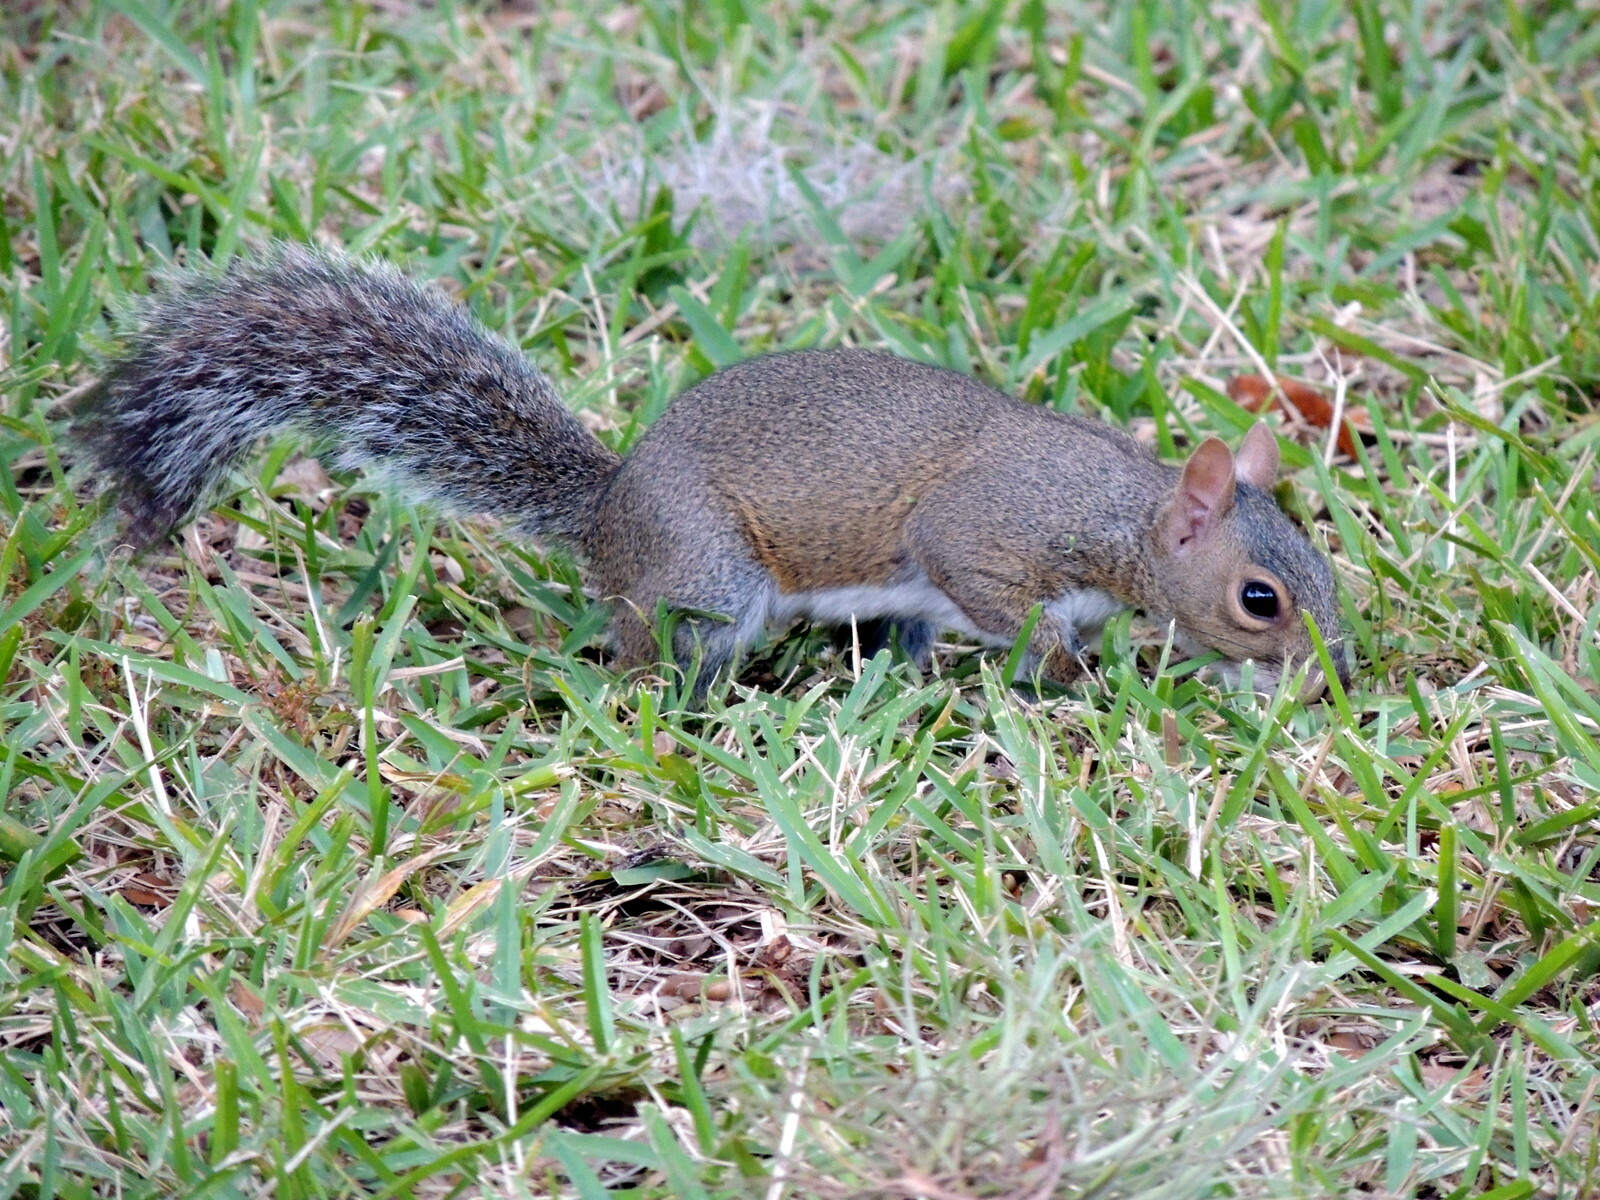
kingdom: Animalia
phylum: Chordata
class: Mammalia
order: Rodentia
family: Sciuridae
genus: Sciurus
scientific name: Sciurus carolinensis
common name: Eastern gray squirrel
